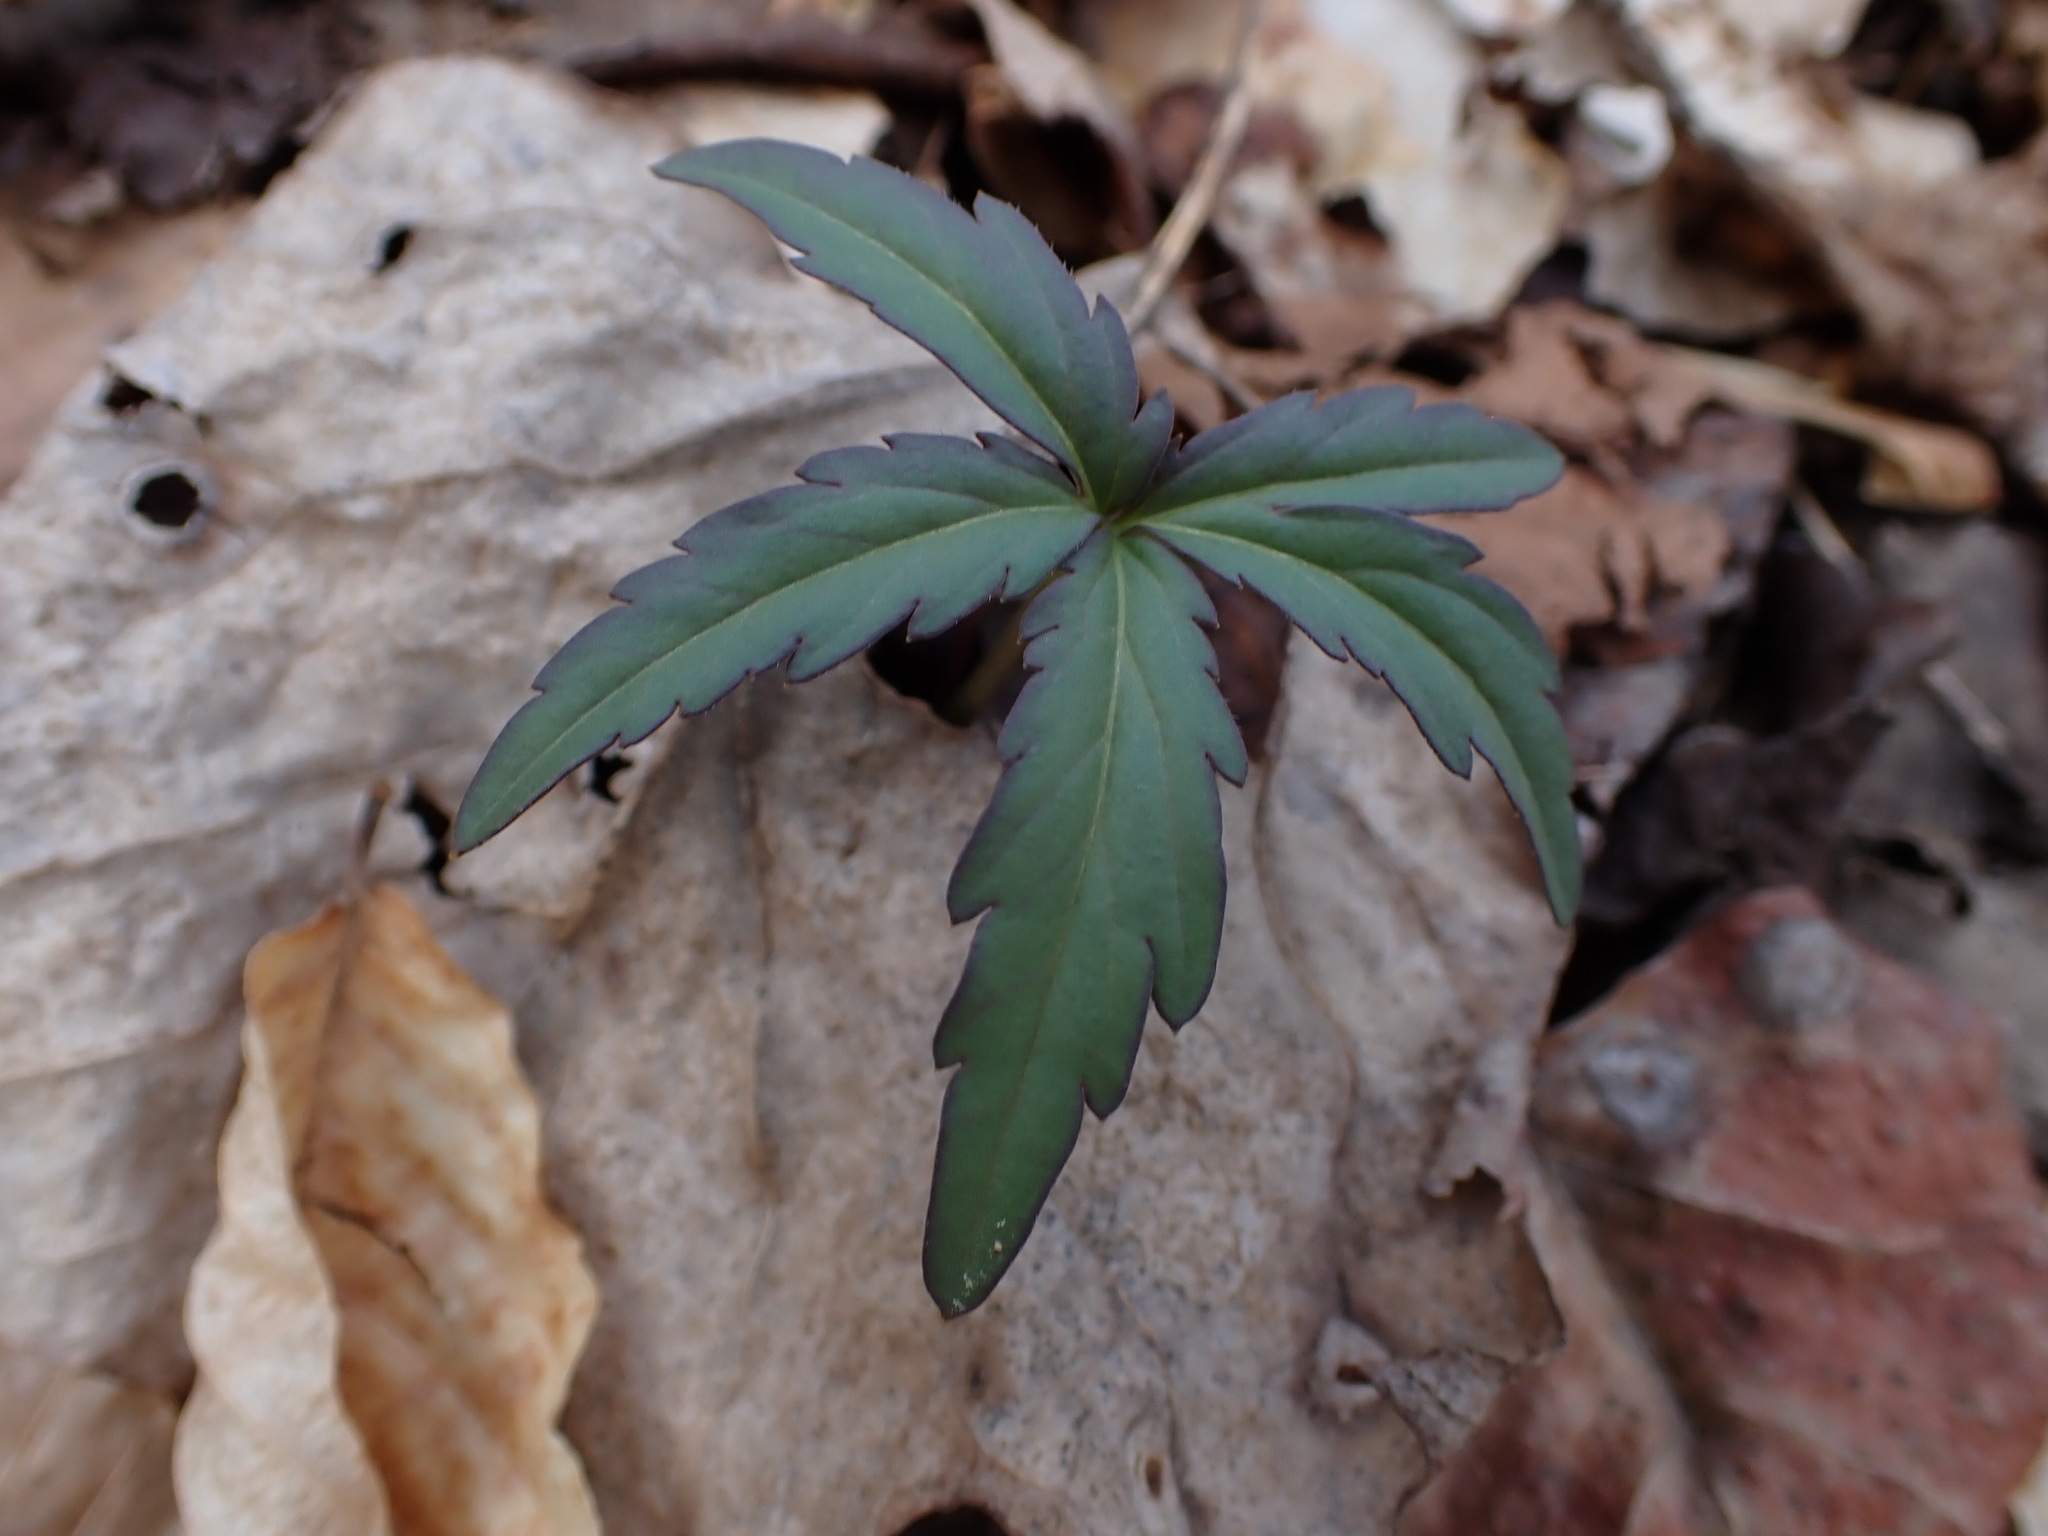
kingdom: Plantae
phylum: Tracheophyta
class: Magnoliopsida
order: Brassicales
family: Brassicaceae
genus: Cardamine
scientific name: Cardamine concatenata
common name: Cut-leaf toothcup
